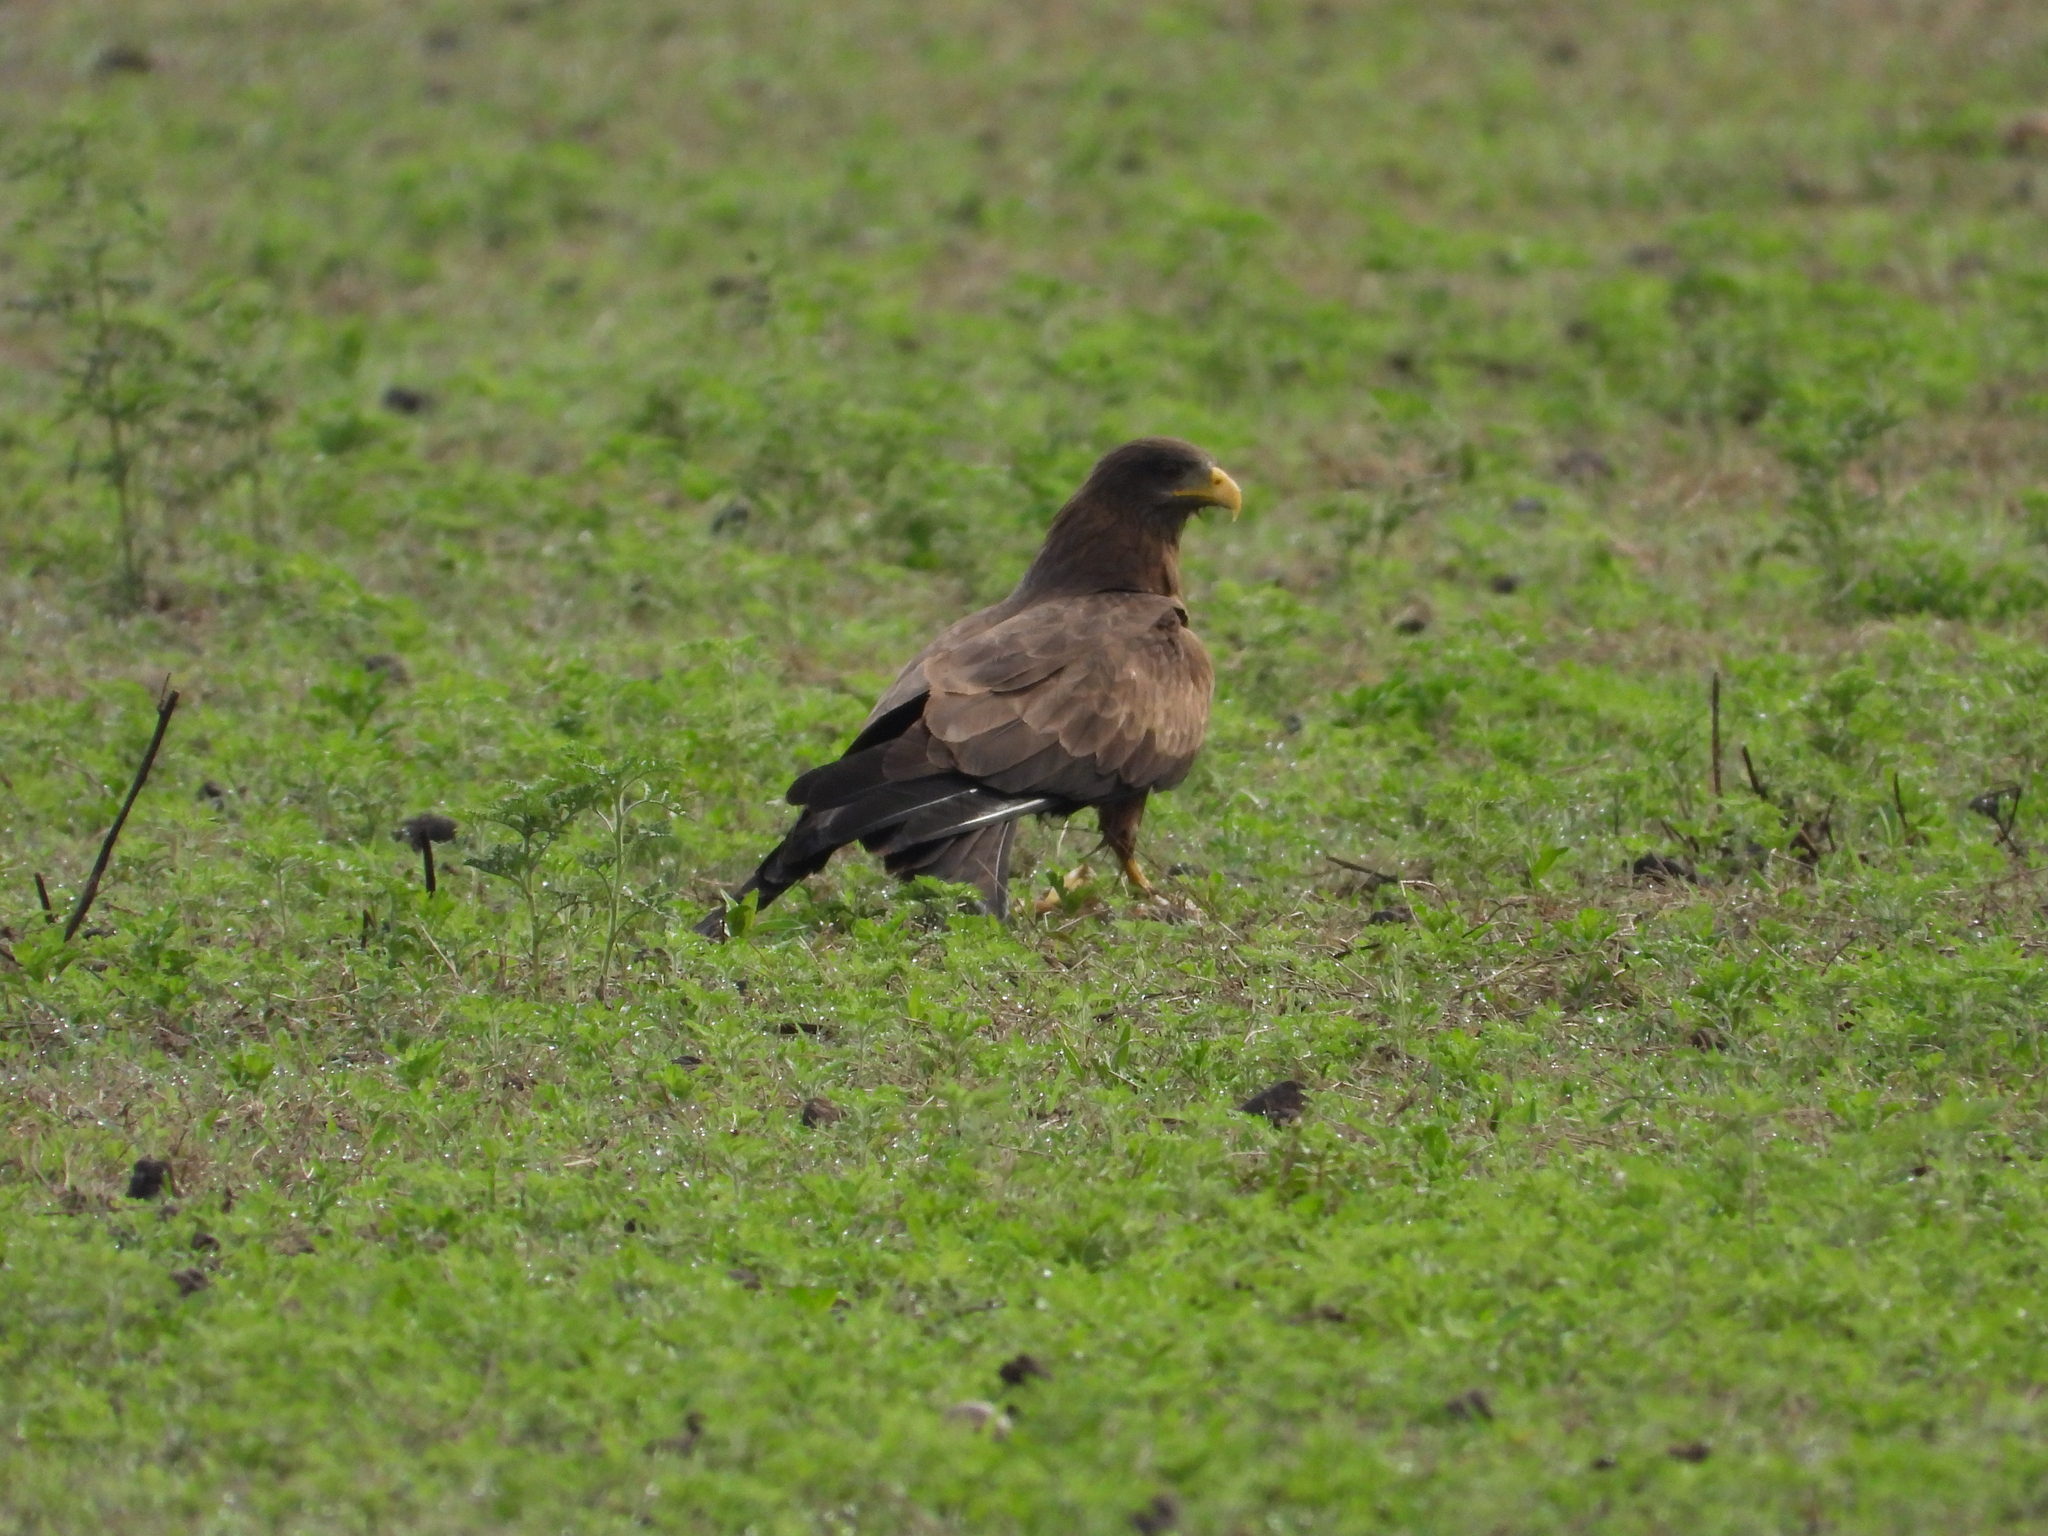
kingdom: Animalia
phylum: Chordata
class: Aves
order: Accipitriformes
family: Accipitridae
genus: Milvus
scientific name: Milvus migrans
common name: Black kite
